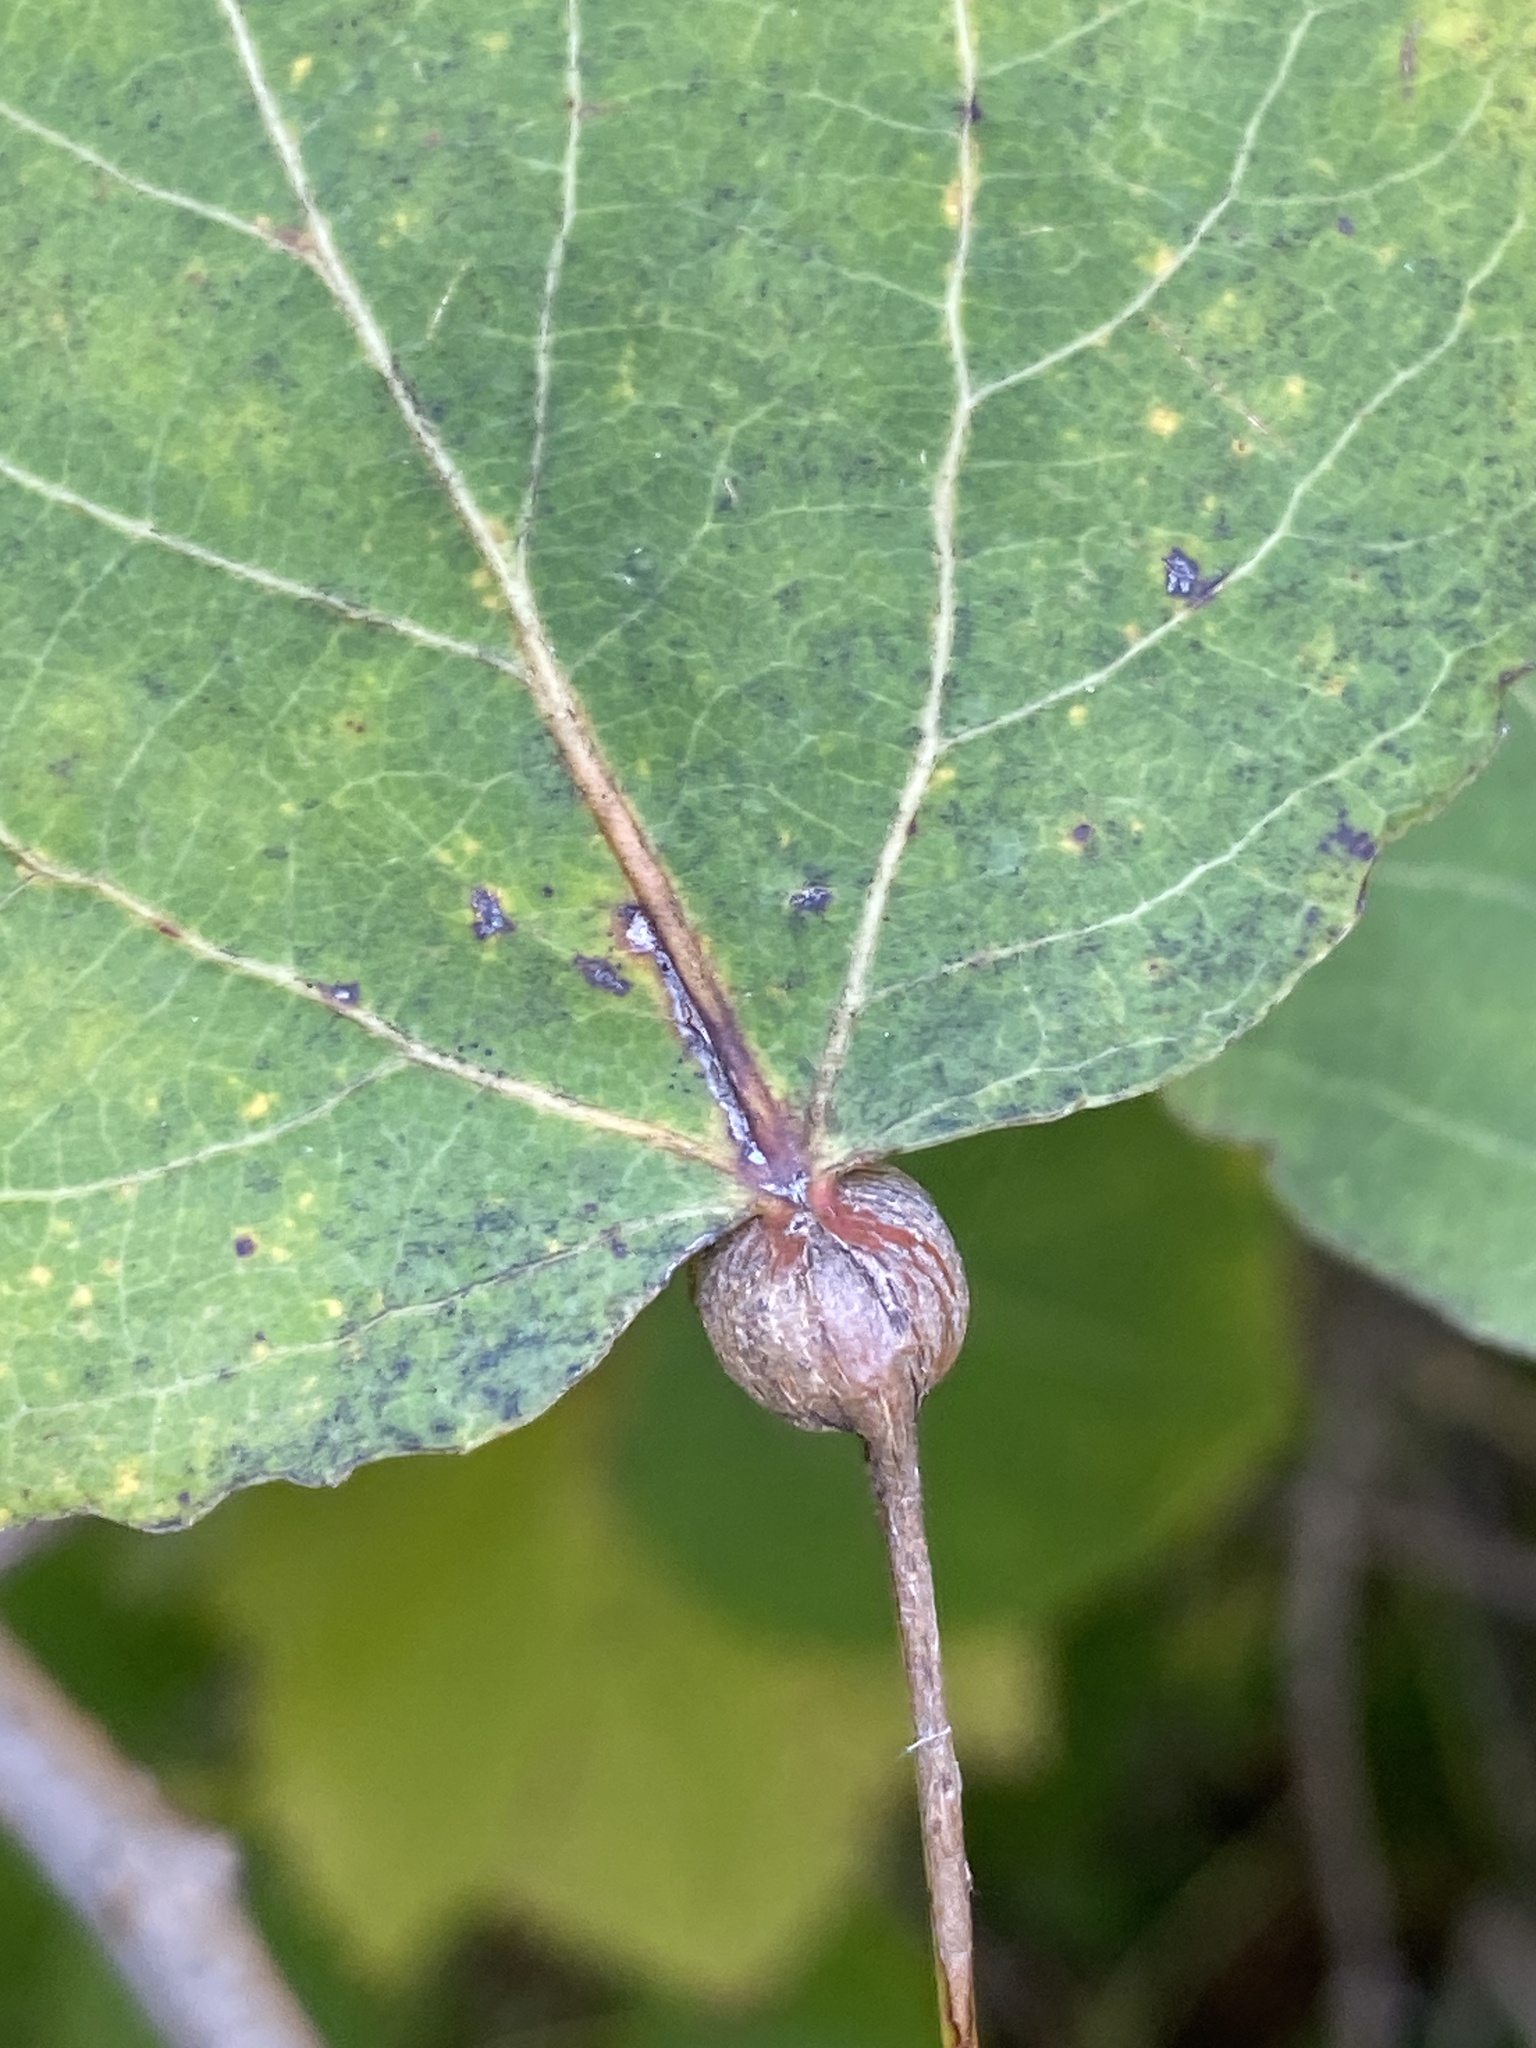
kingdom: Animalia
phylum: Arthropoda
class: Insecta
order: Lepidoptera
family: Nepticulidae
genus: Ectoedemia
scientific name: Ectoedemia populella
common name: Aspen petiole gall moth
